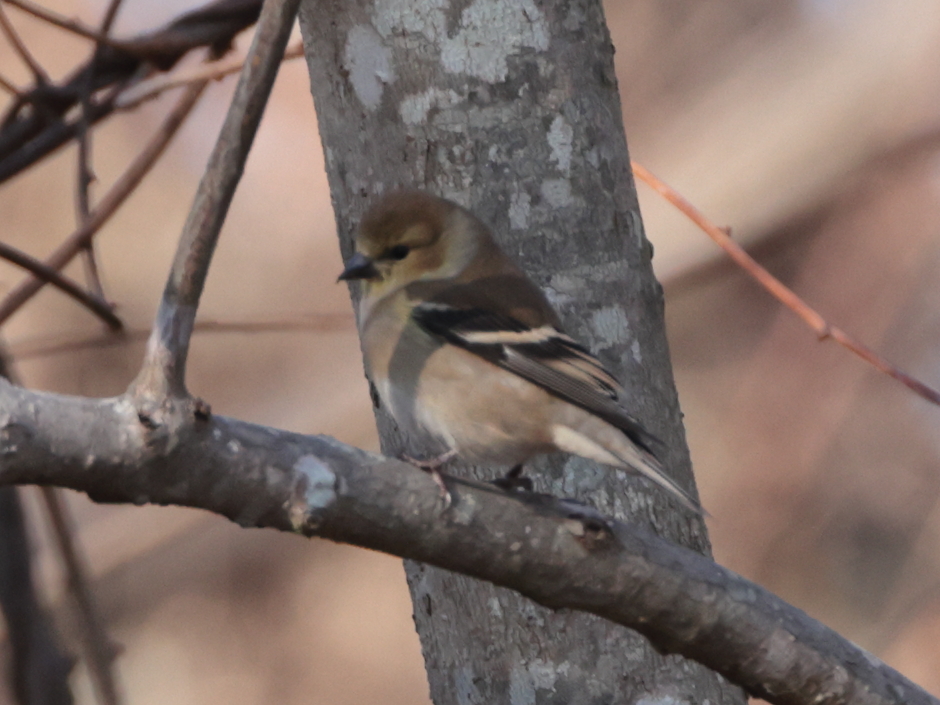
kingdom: Animalia
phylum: Chordata
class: Aves
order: Passeriformes
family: Fringillidae
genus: Spinus
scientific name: Spinus tristis
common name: American goldfinch
